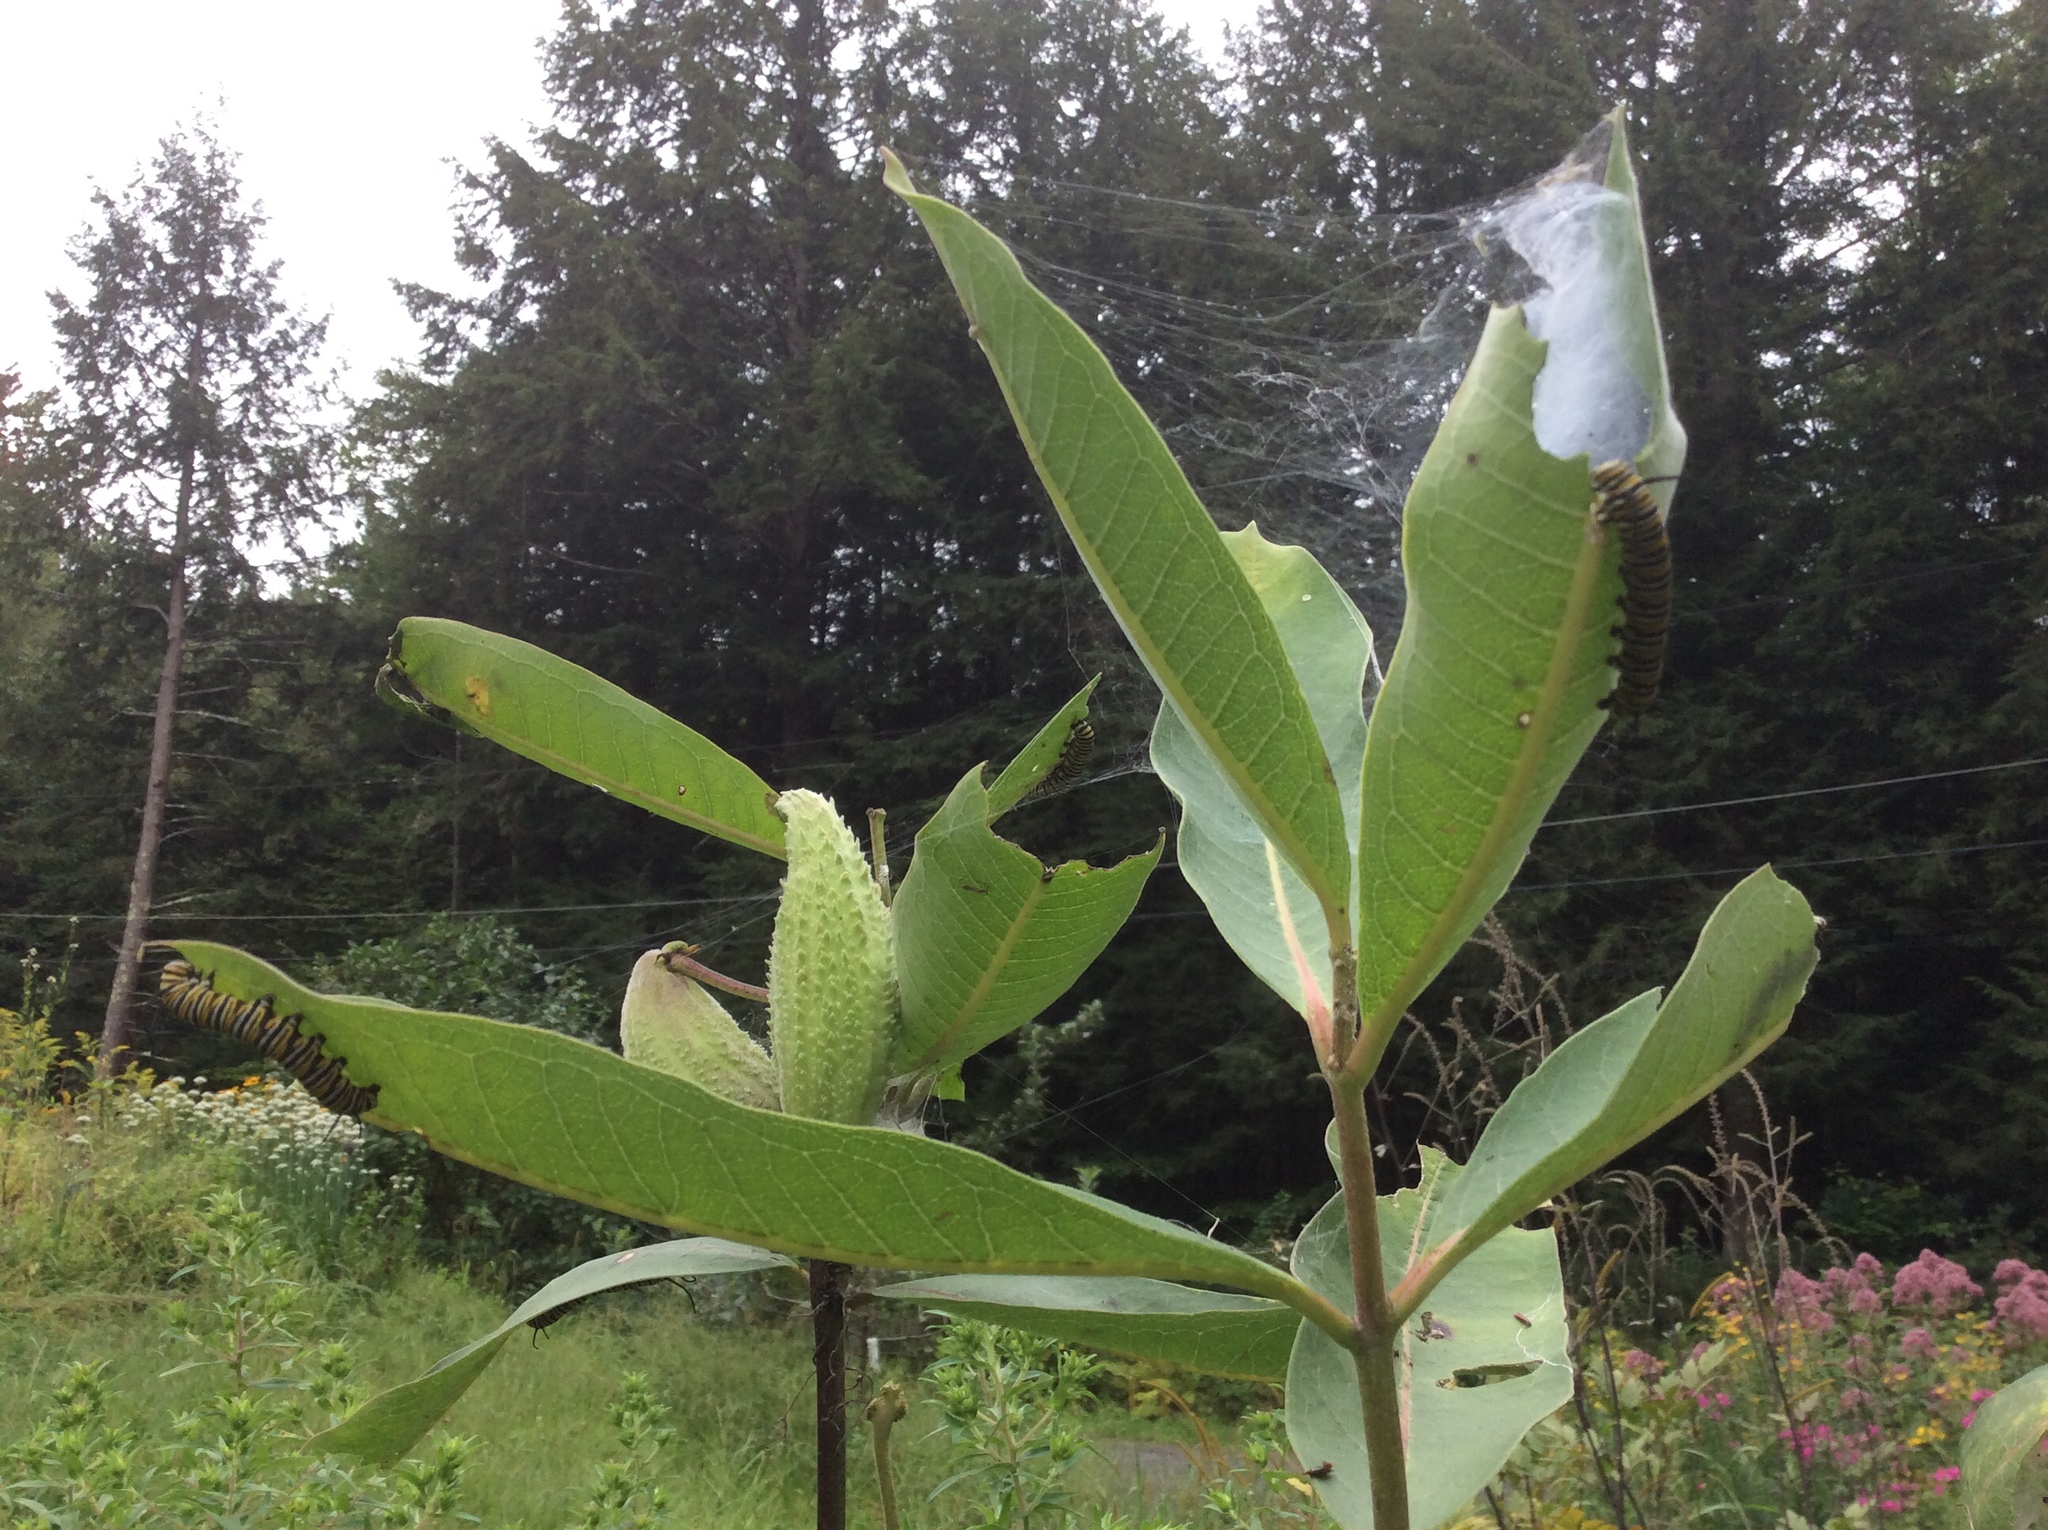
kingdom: Animalia
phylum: Arthropoda
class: Insecta
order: Lepidoptera
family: Nymphalidae
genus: Danaus
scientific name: Danaus plexippus
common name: Monarch
